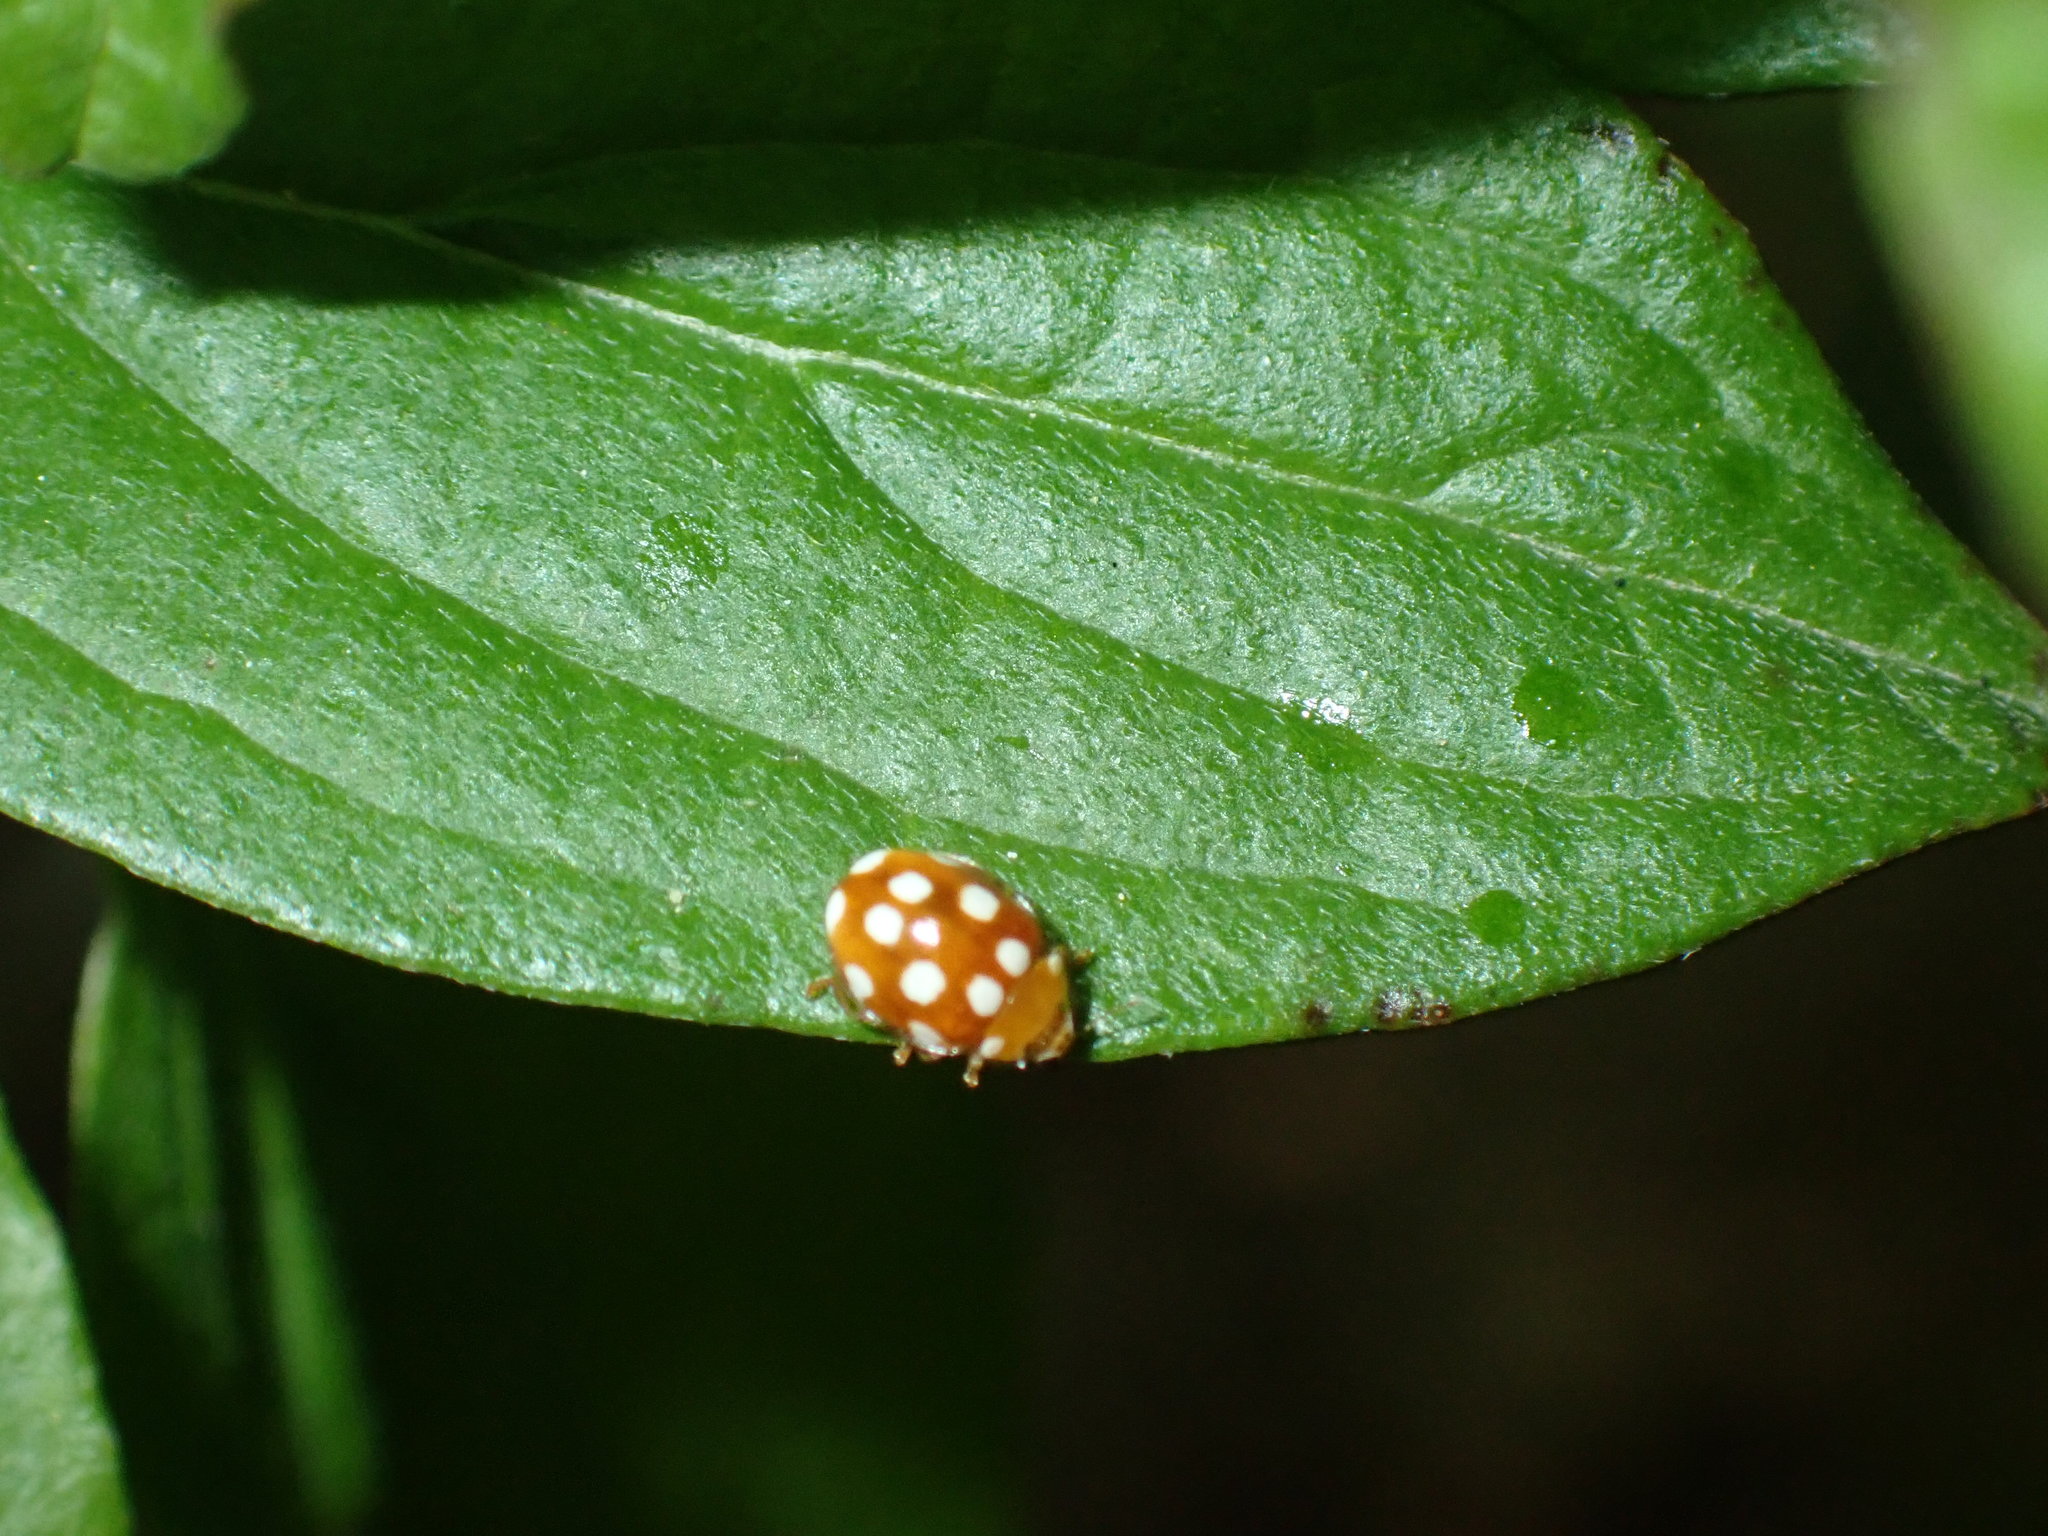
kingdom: Animalia
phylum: Arthropoda
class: Insecta
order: Coleoptera
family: Coccinellidae
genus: Vibidia
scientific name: Vibidia duodecimguttata
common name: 12-spot ladybird
